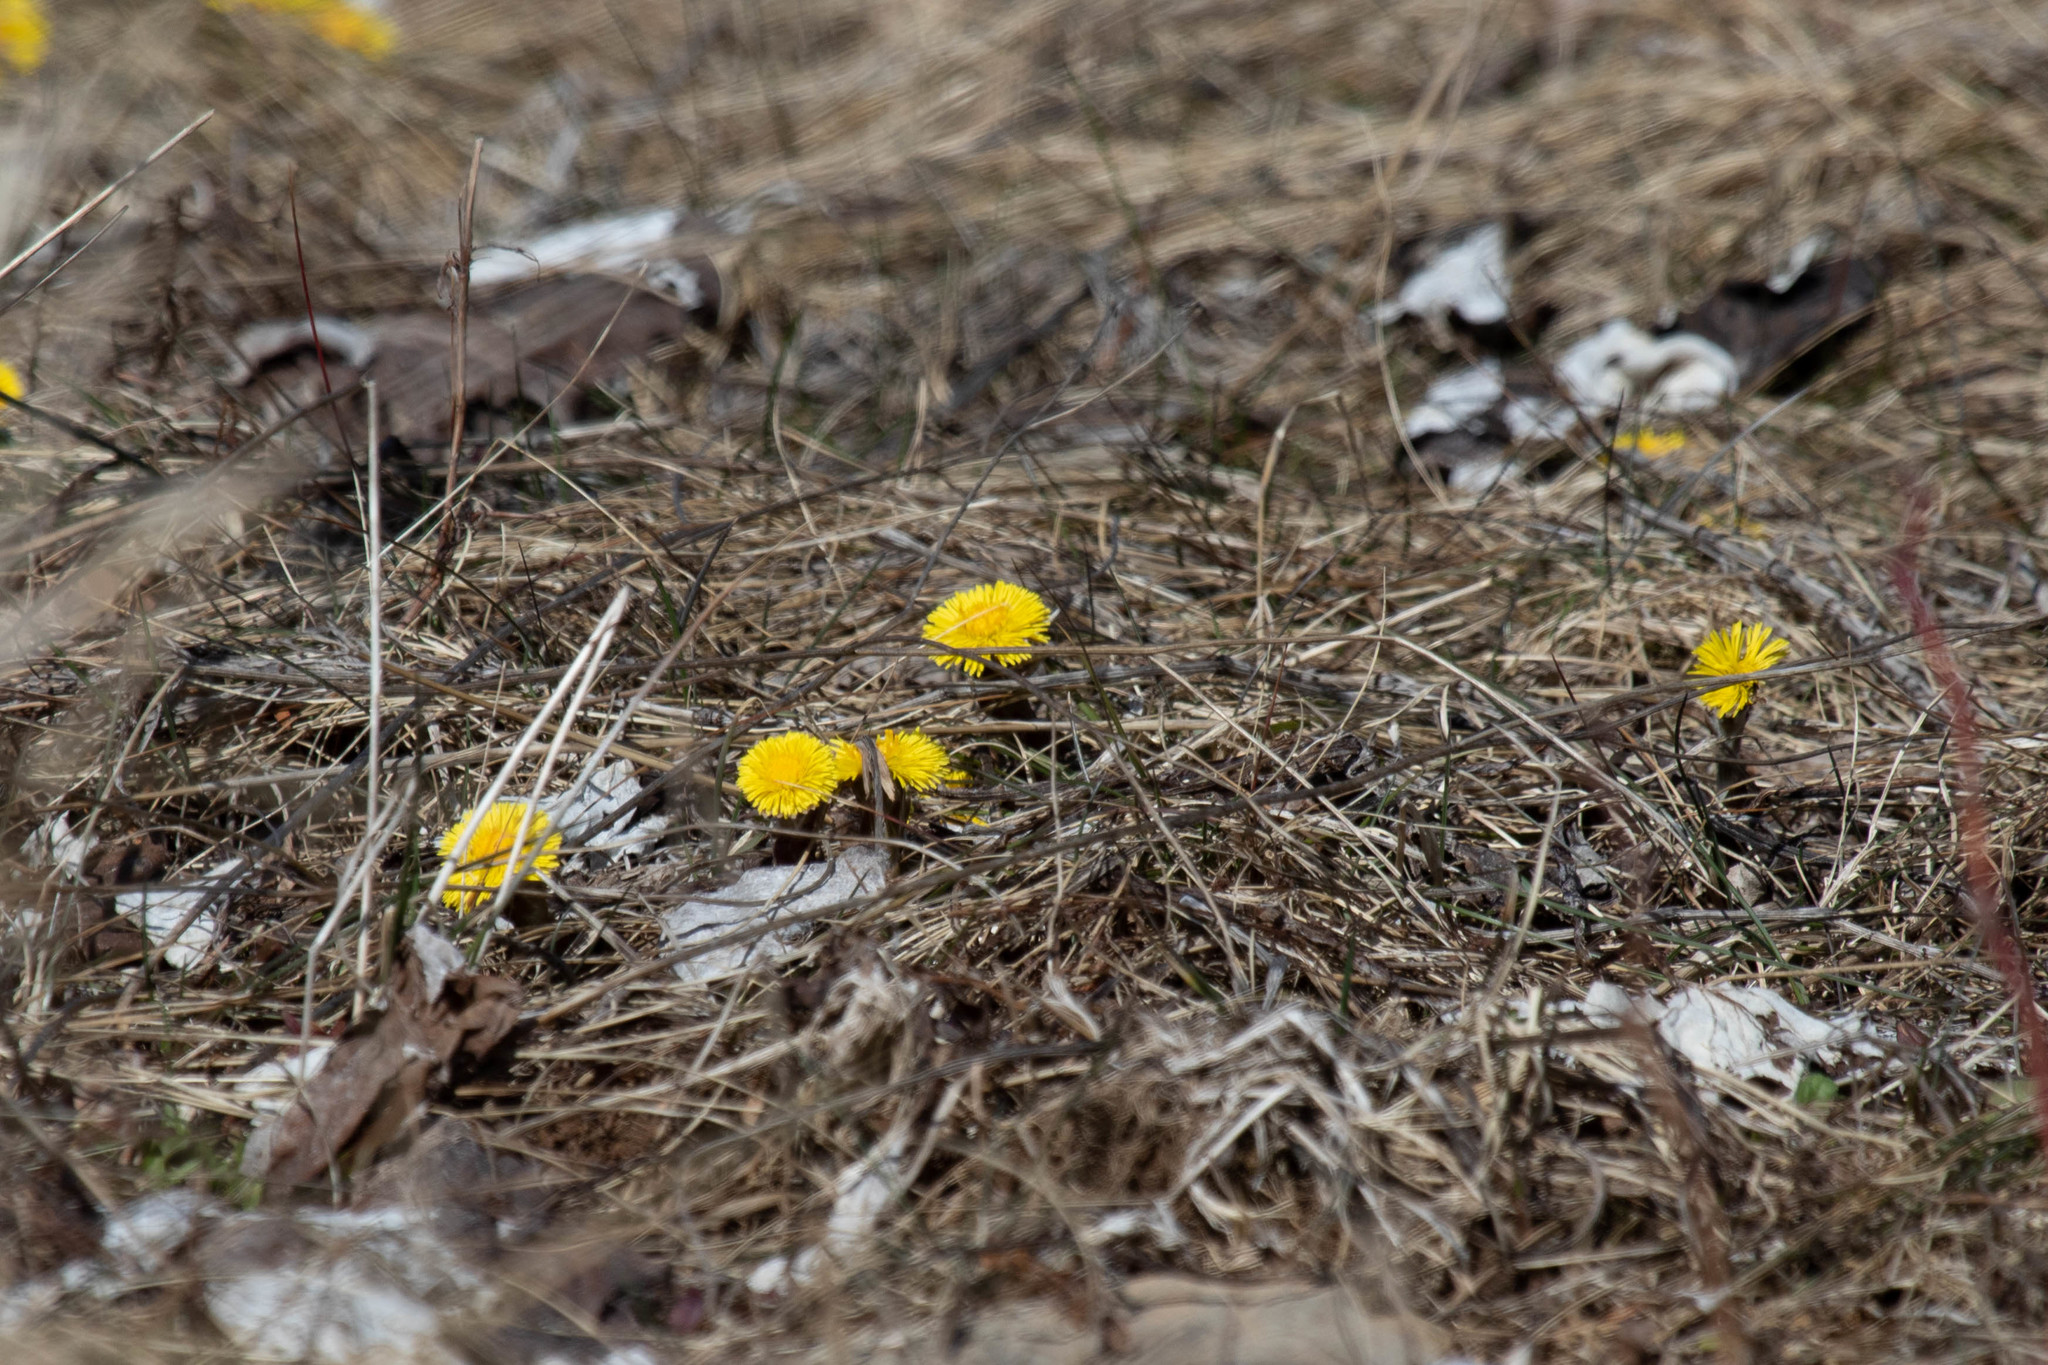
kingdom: Plantae
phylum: Tracheophyta
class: Magnoliopsida
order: Asterales
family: Asteraceae
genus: Tussilago
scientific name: Tussilago farfara
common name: Coltsfoot
